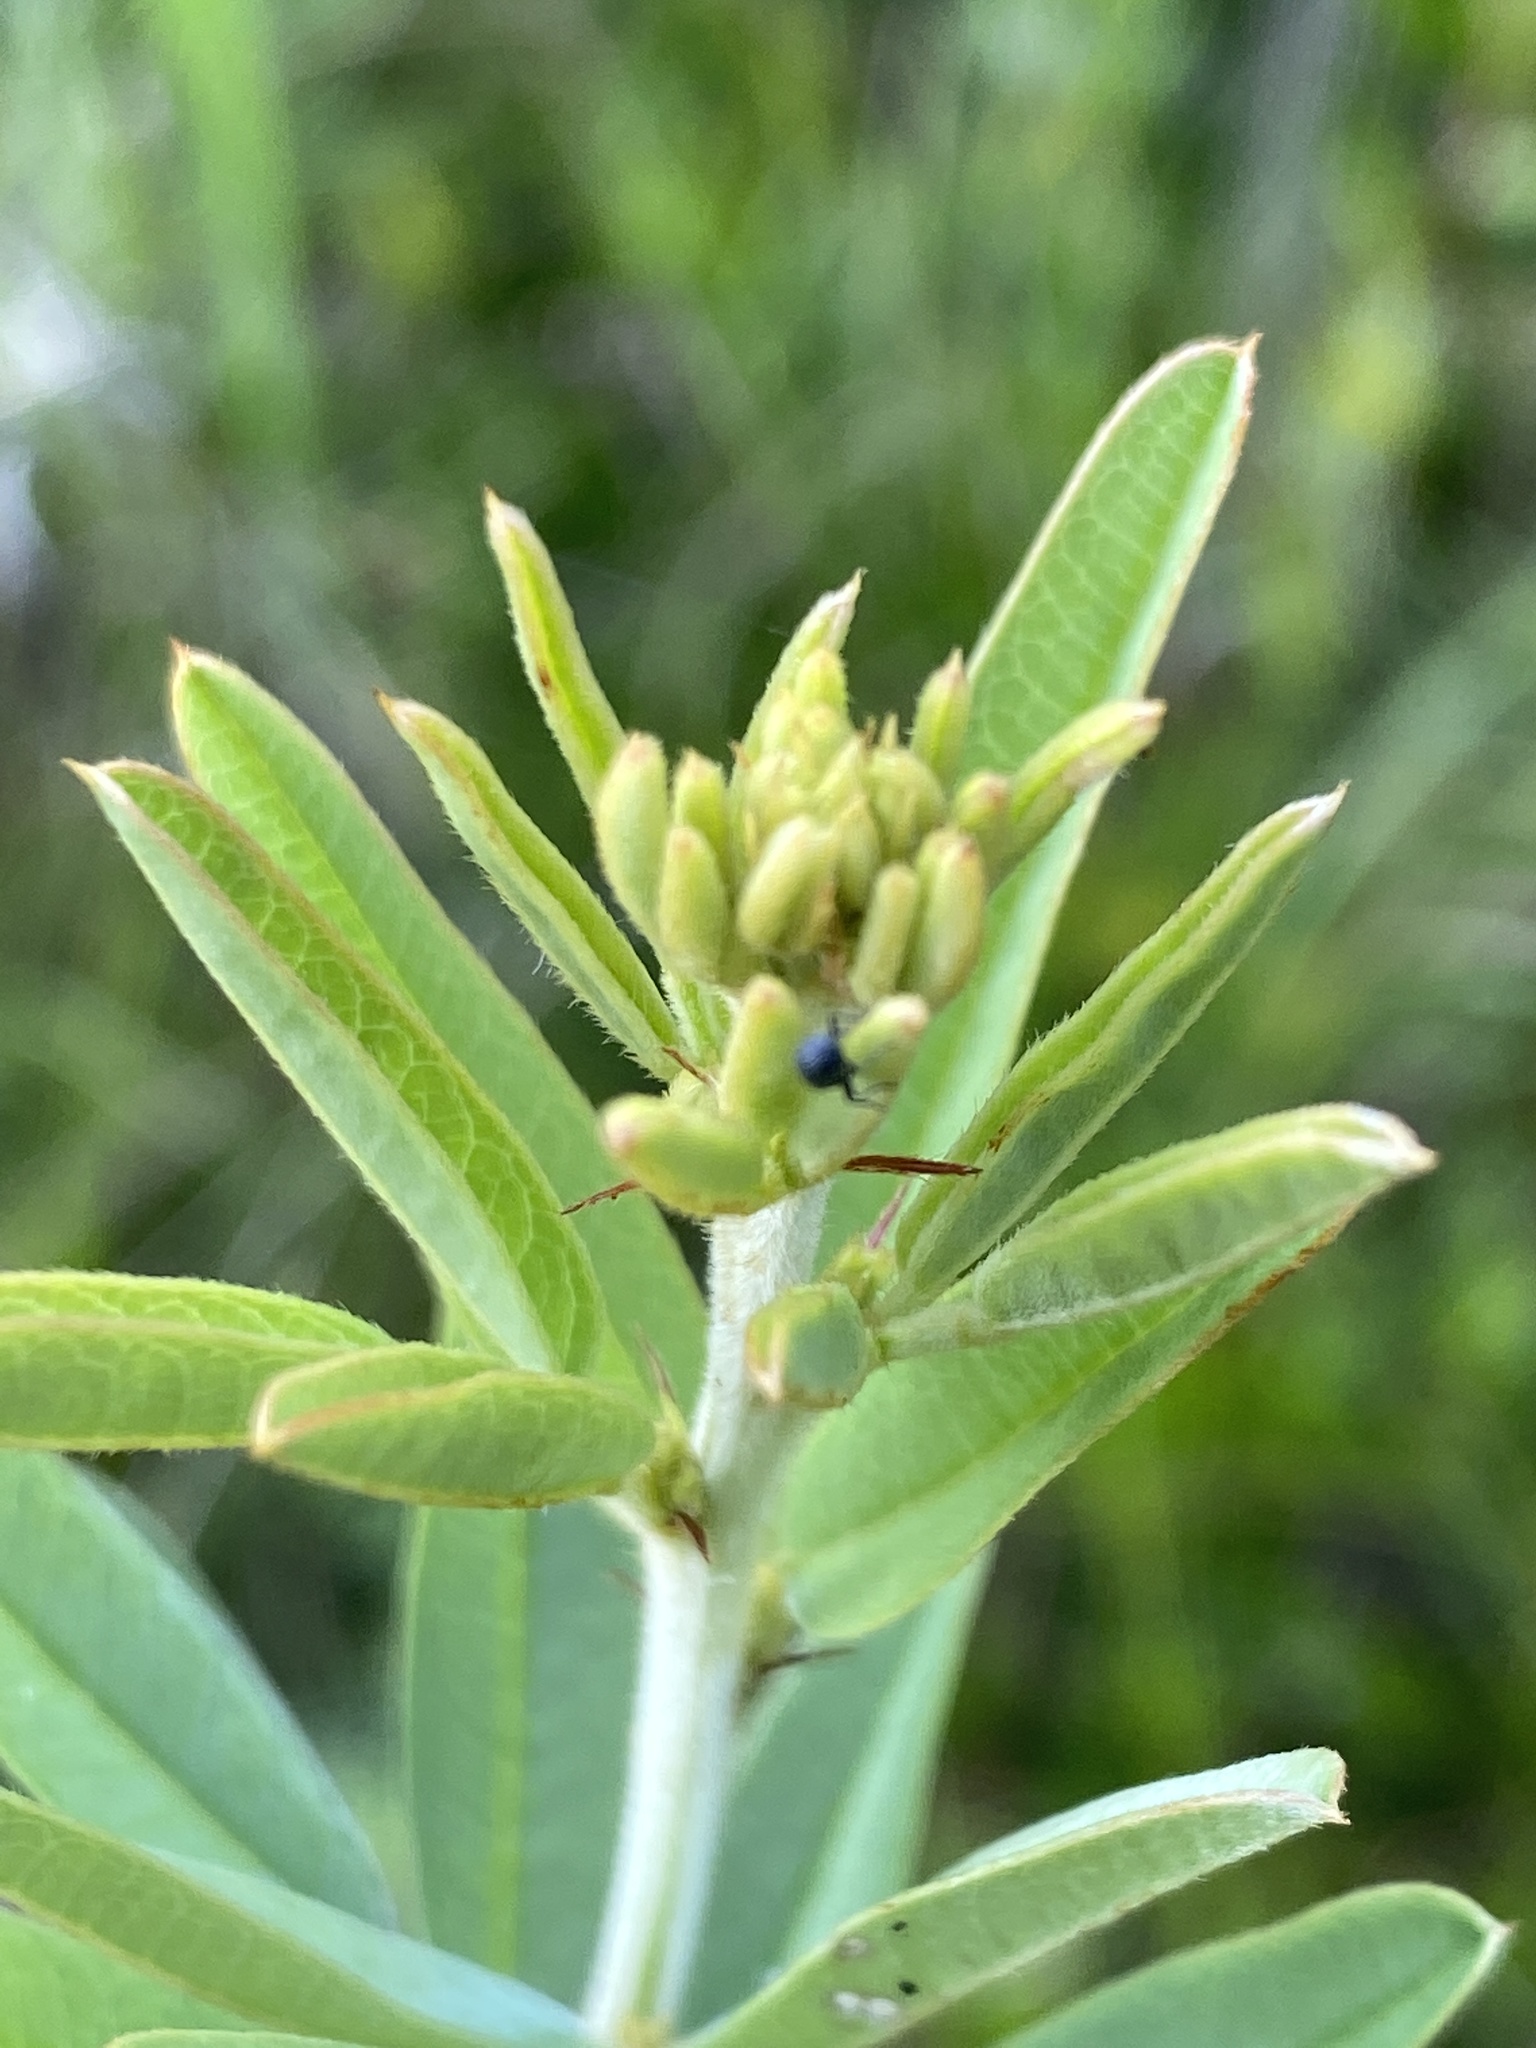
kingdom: Plantae
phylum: Tracheophyta
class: Magnoliopsida
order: Fabales
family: Fabaceae
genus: Lespedeza
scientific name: Lespedeza capitata
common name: Dusty clover
